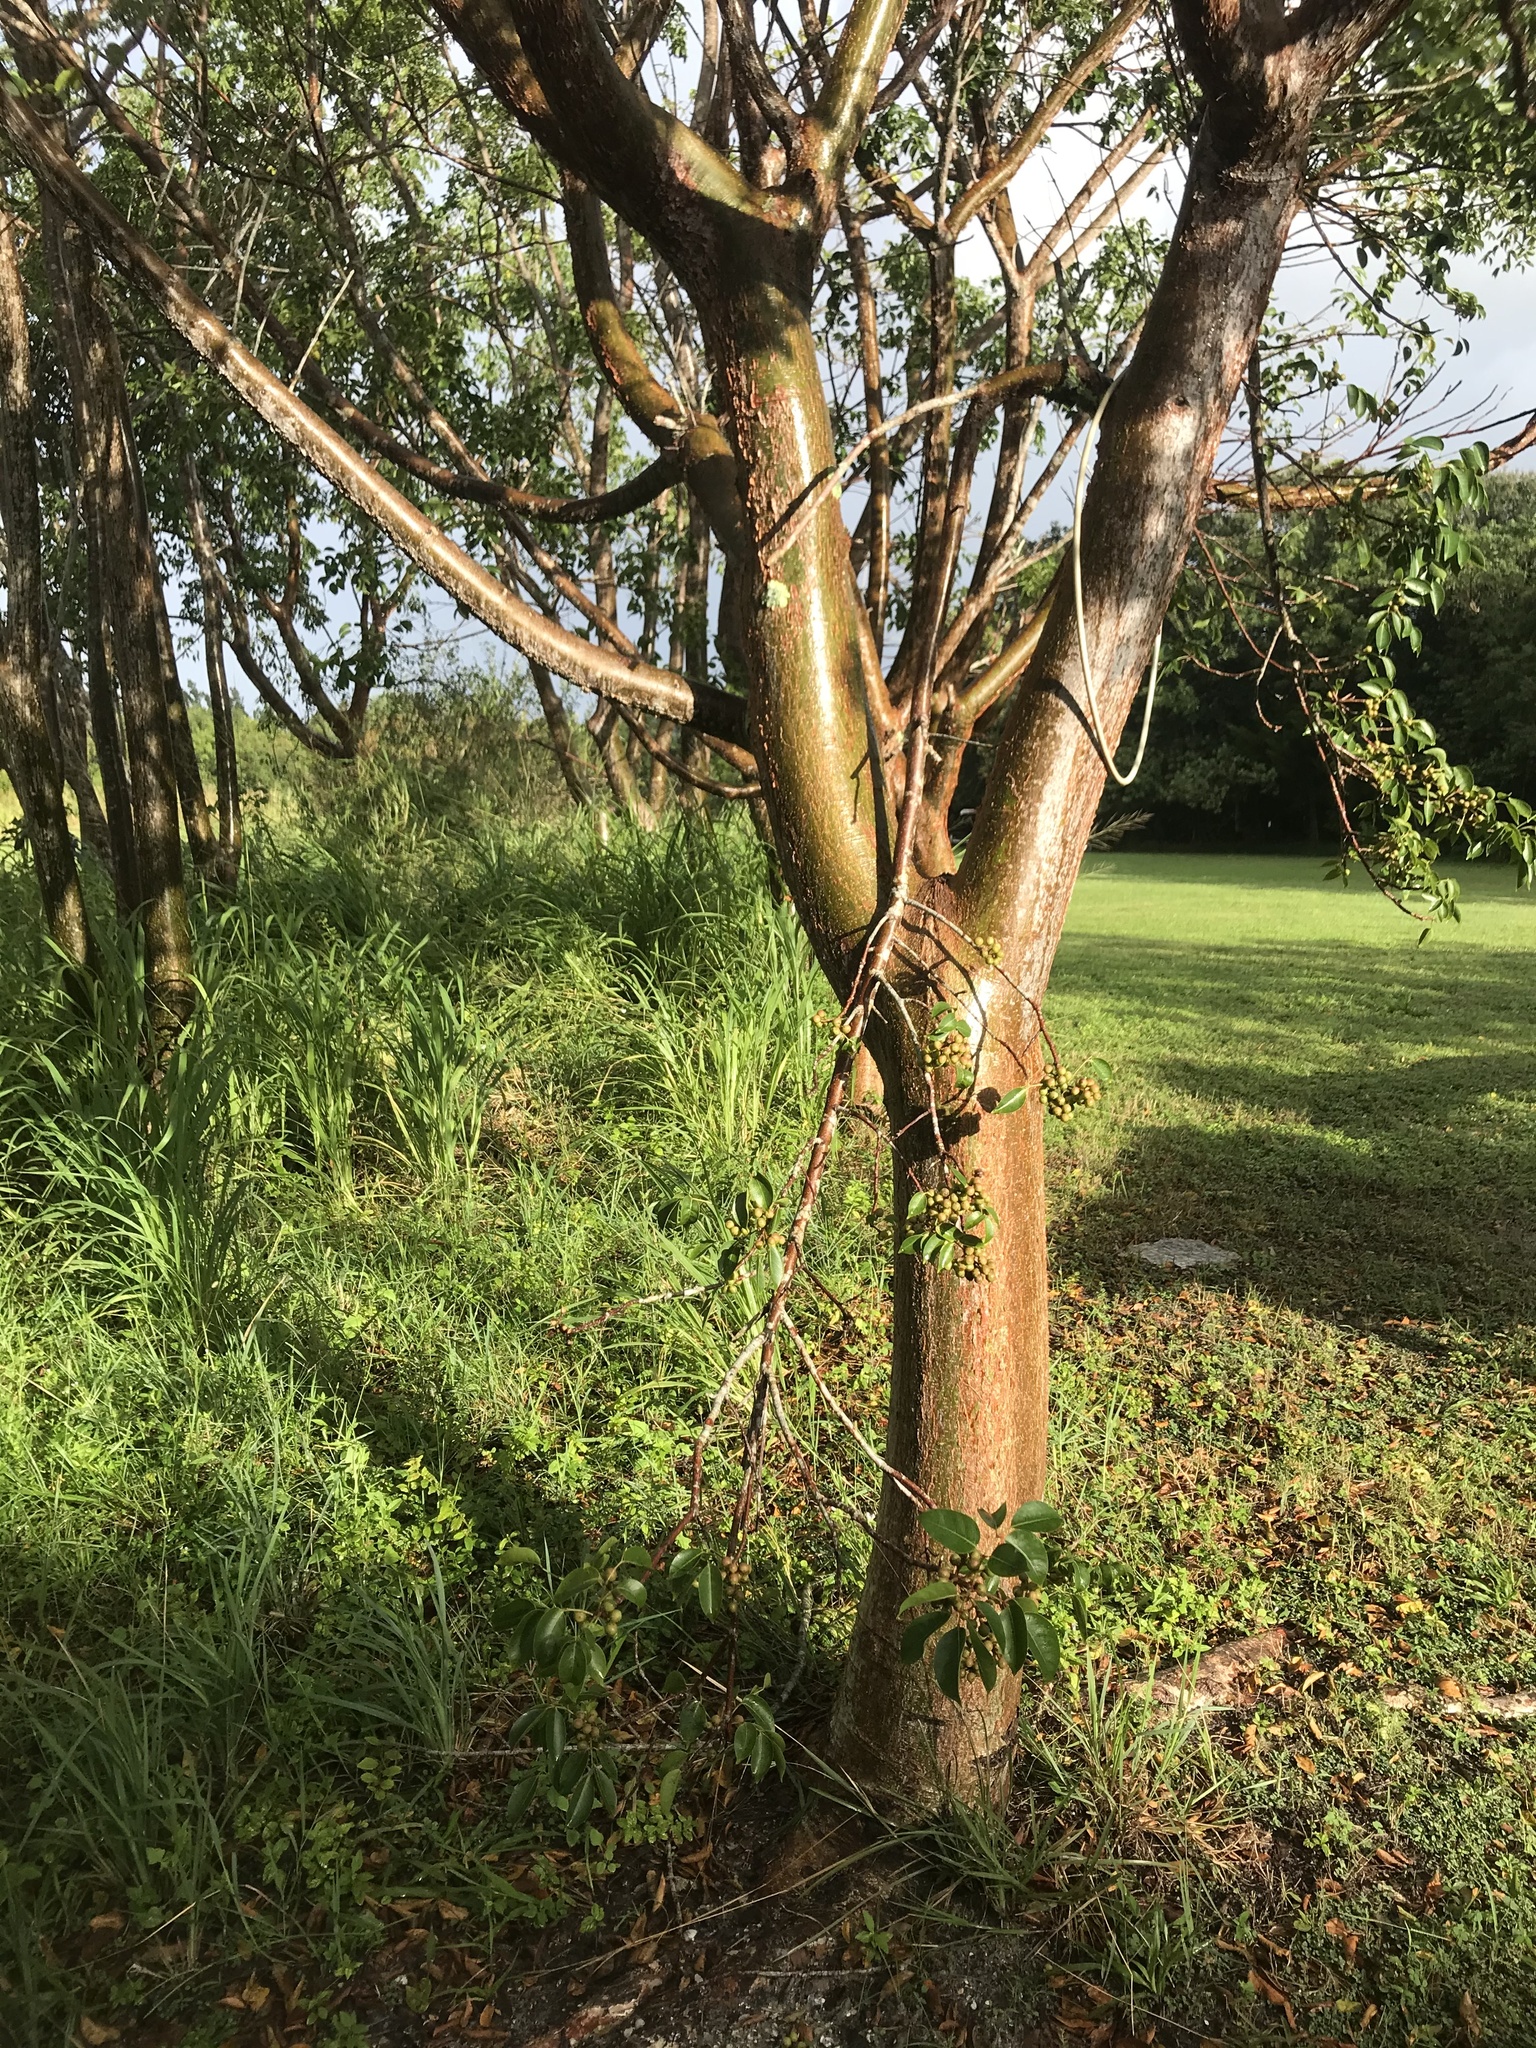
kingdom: Plantae
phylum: Tracheophyta
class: Magnoliopsida
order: Sapindales
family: Burseraceae
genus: Bursera
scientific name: Bursera simaruba
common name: Turpentine tree
